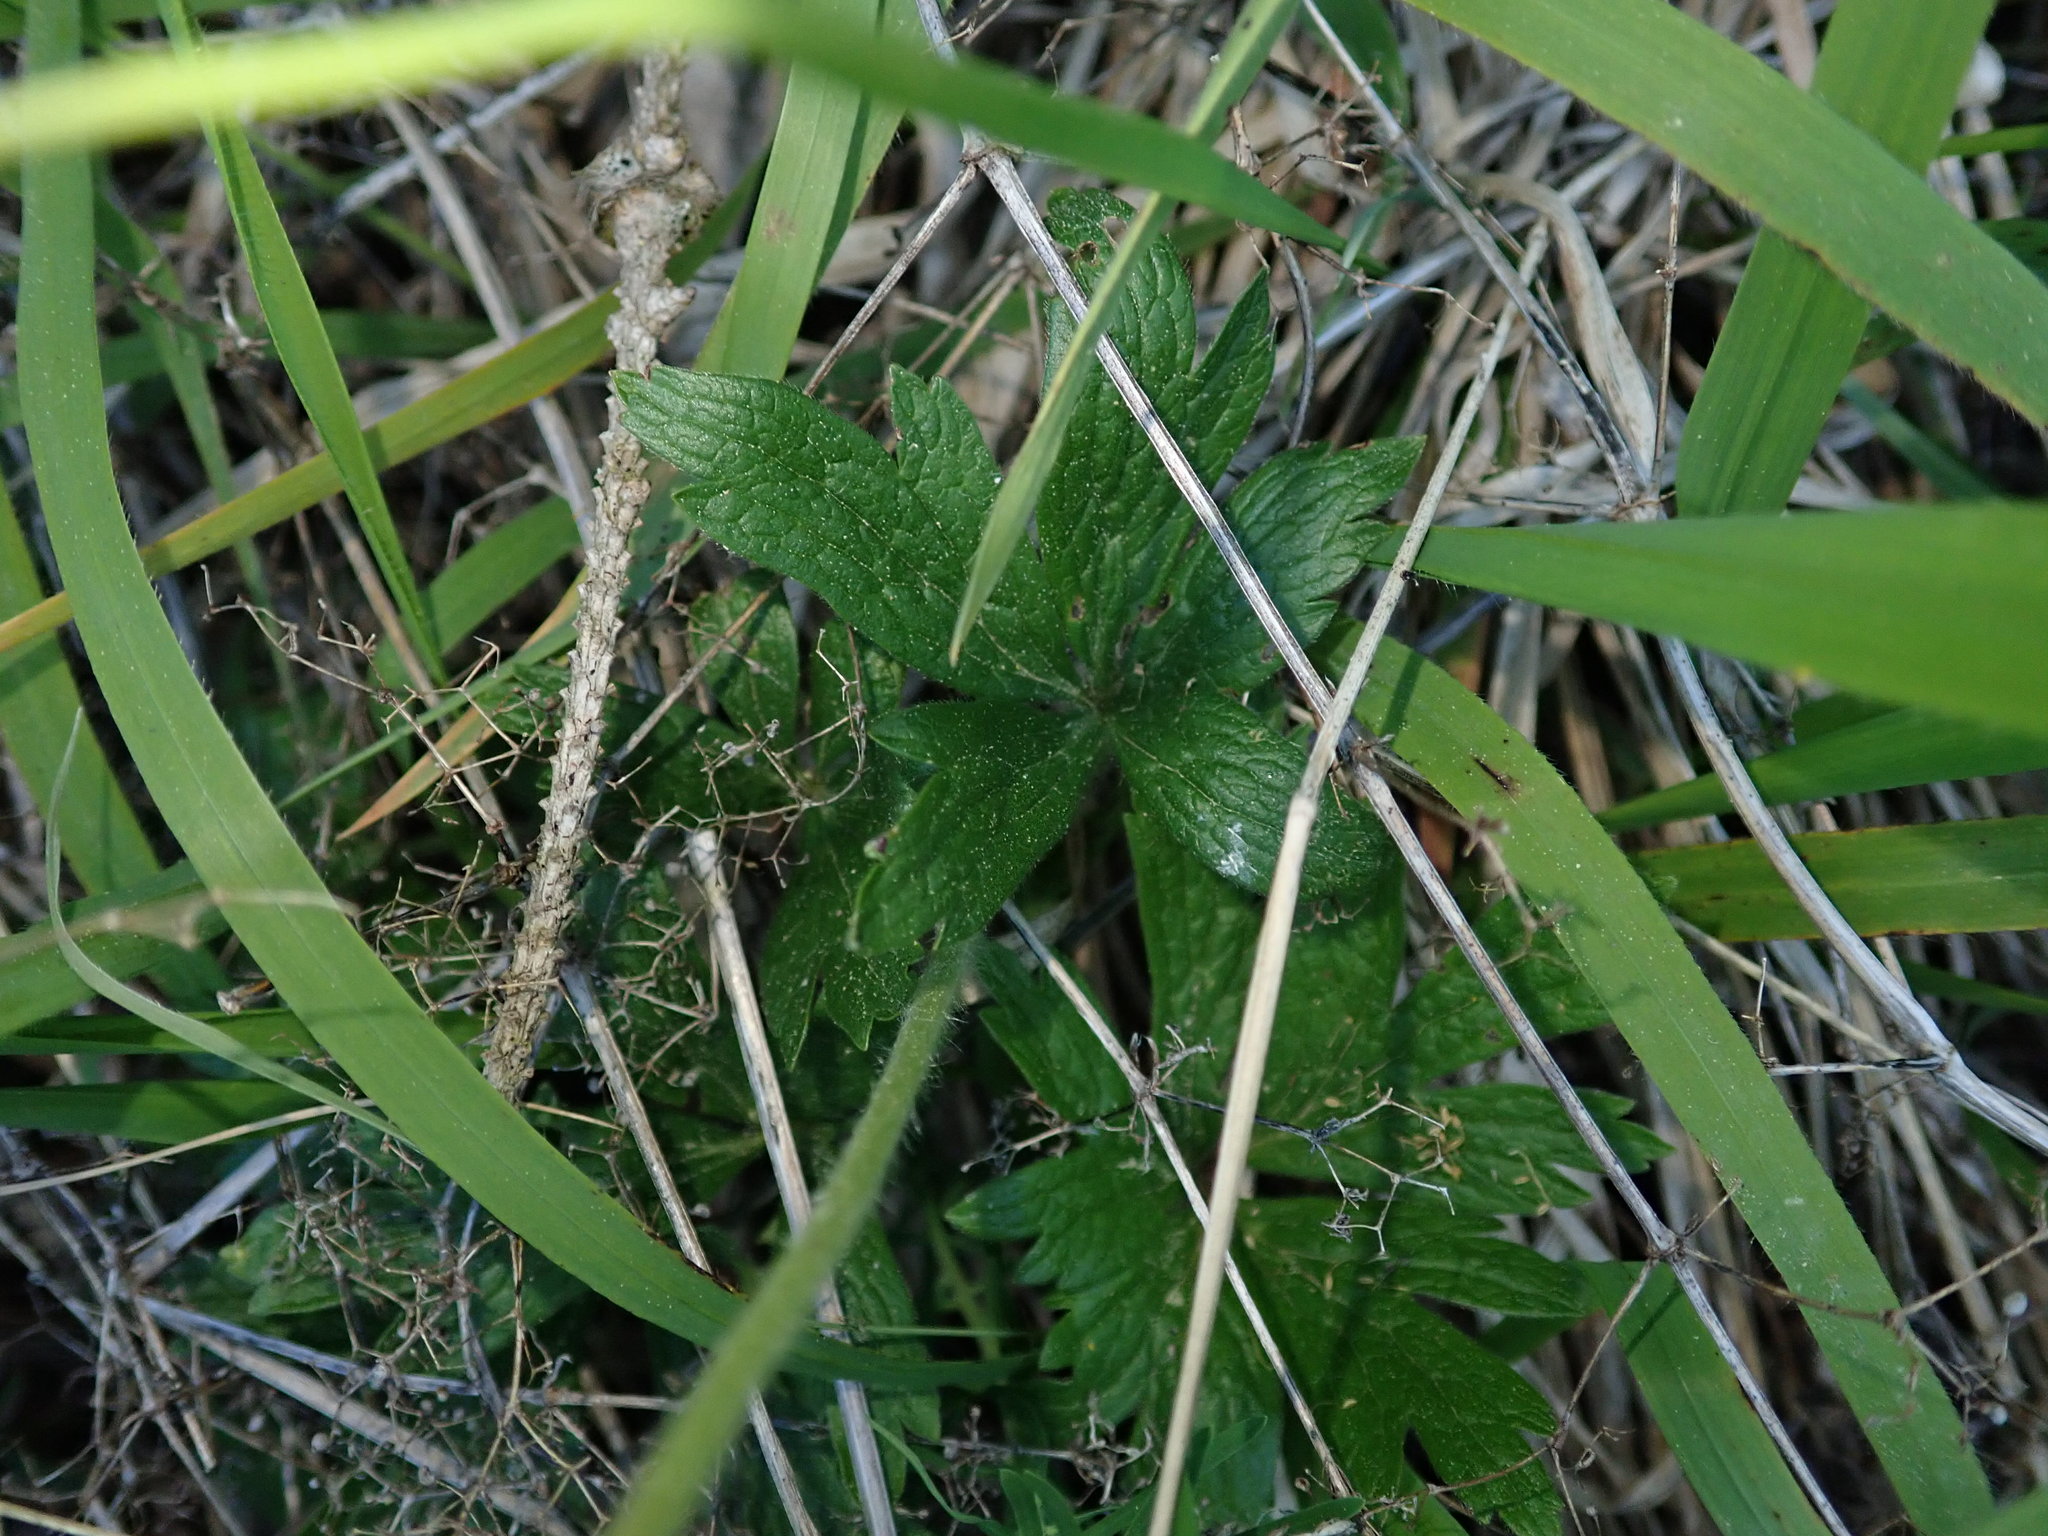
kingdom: Plantae
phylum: Tracheophyta
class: Magnoliopsida
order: Ranunculales
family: Ranunculaceae
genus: Anemone
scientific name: Anemone sylvestris
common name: Snowdrop anemone
